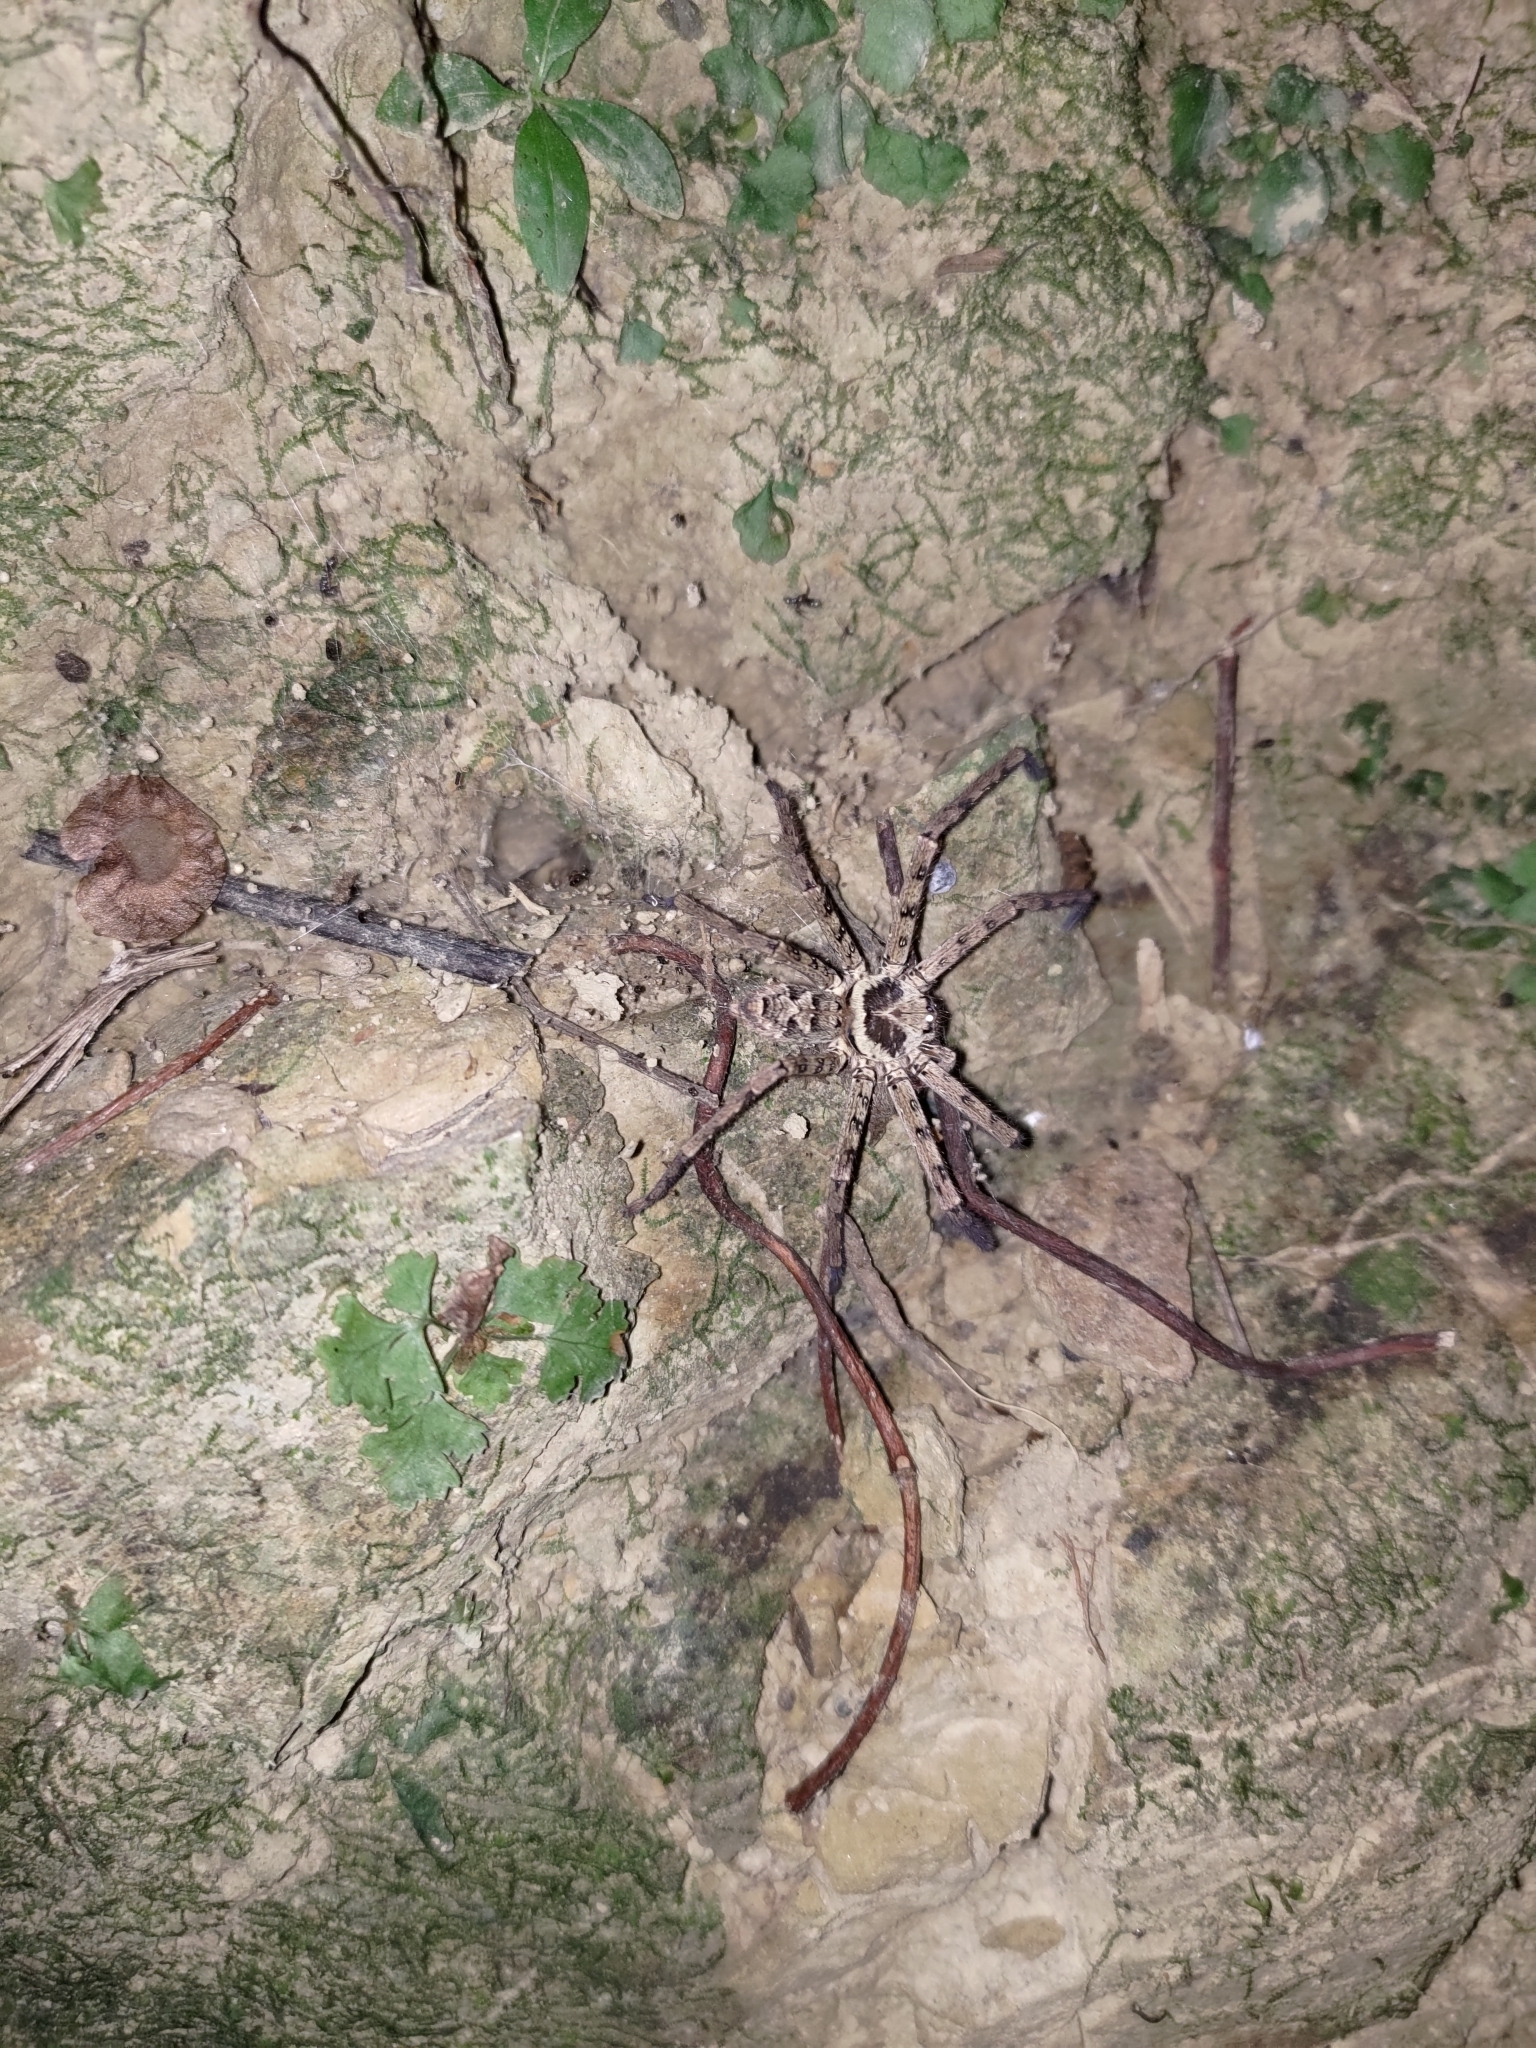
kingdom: Animalia
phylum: Arthropoda
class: Arachnida
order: Araneae
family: Sparassidae
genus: Heteropoda
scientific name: Heteropoda venatoria
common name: Huntsman spider
